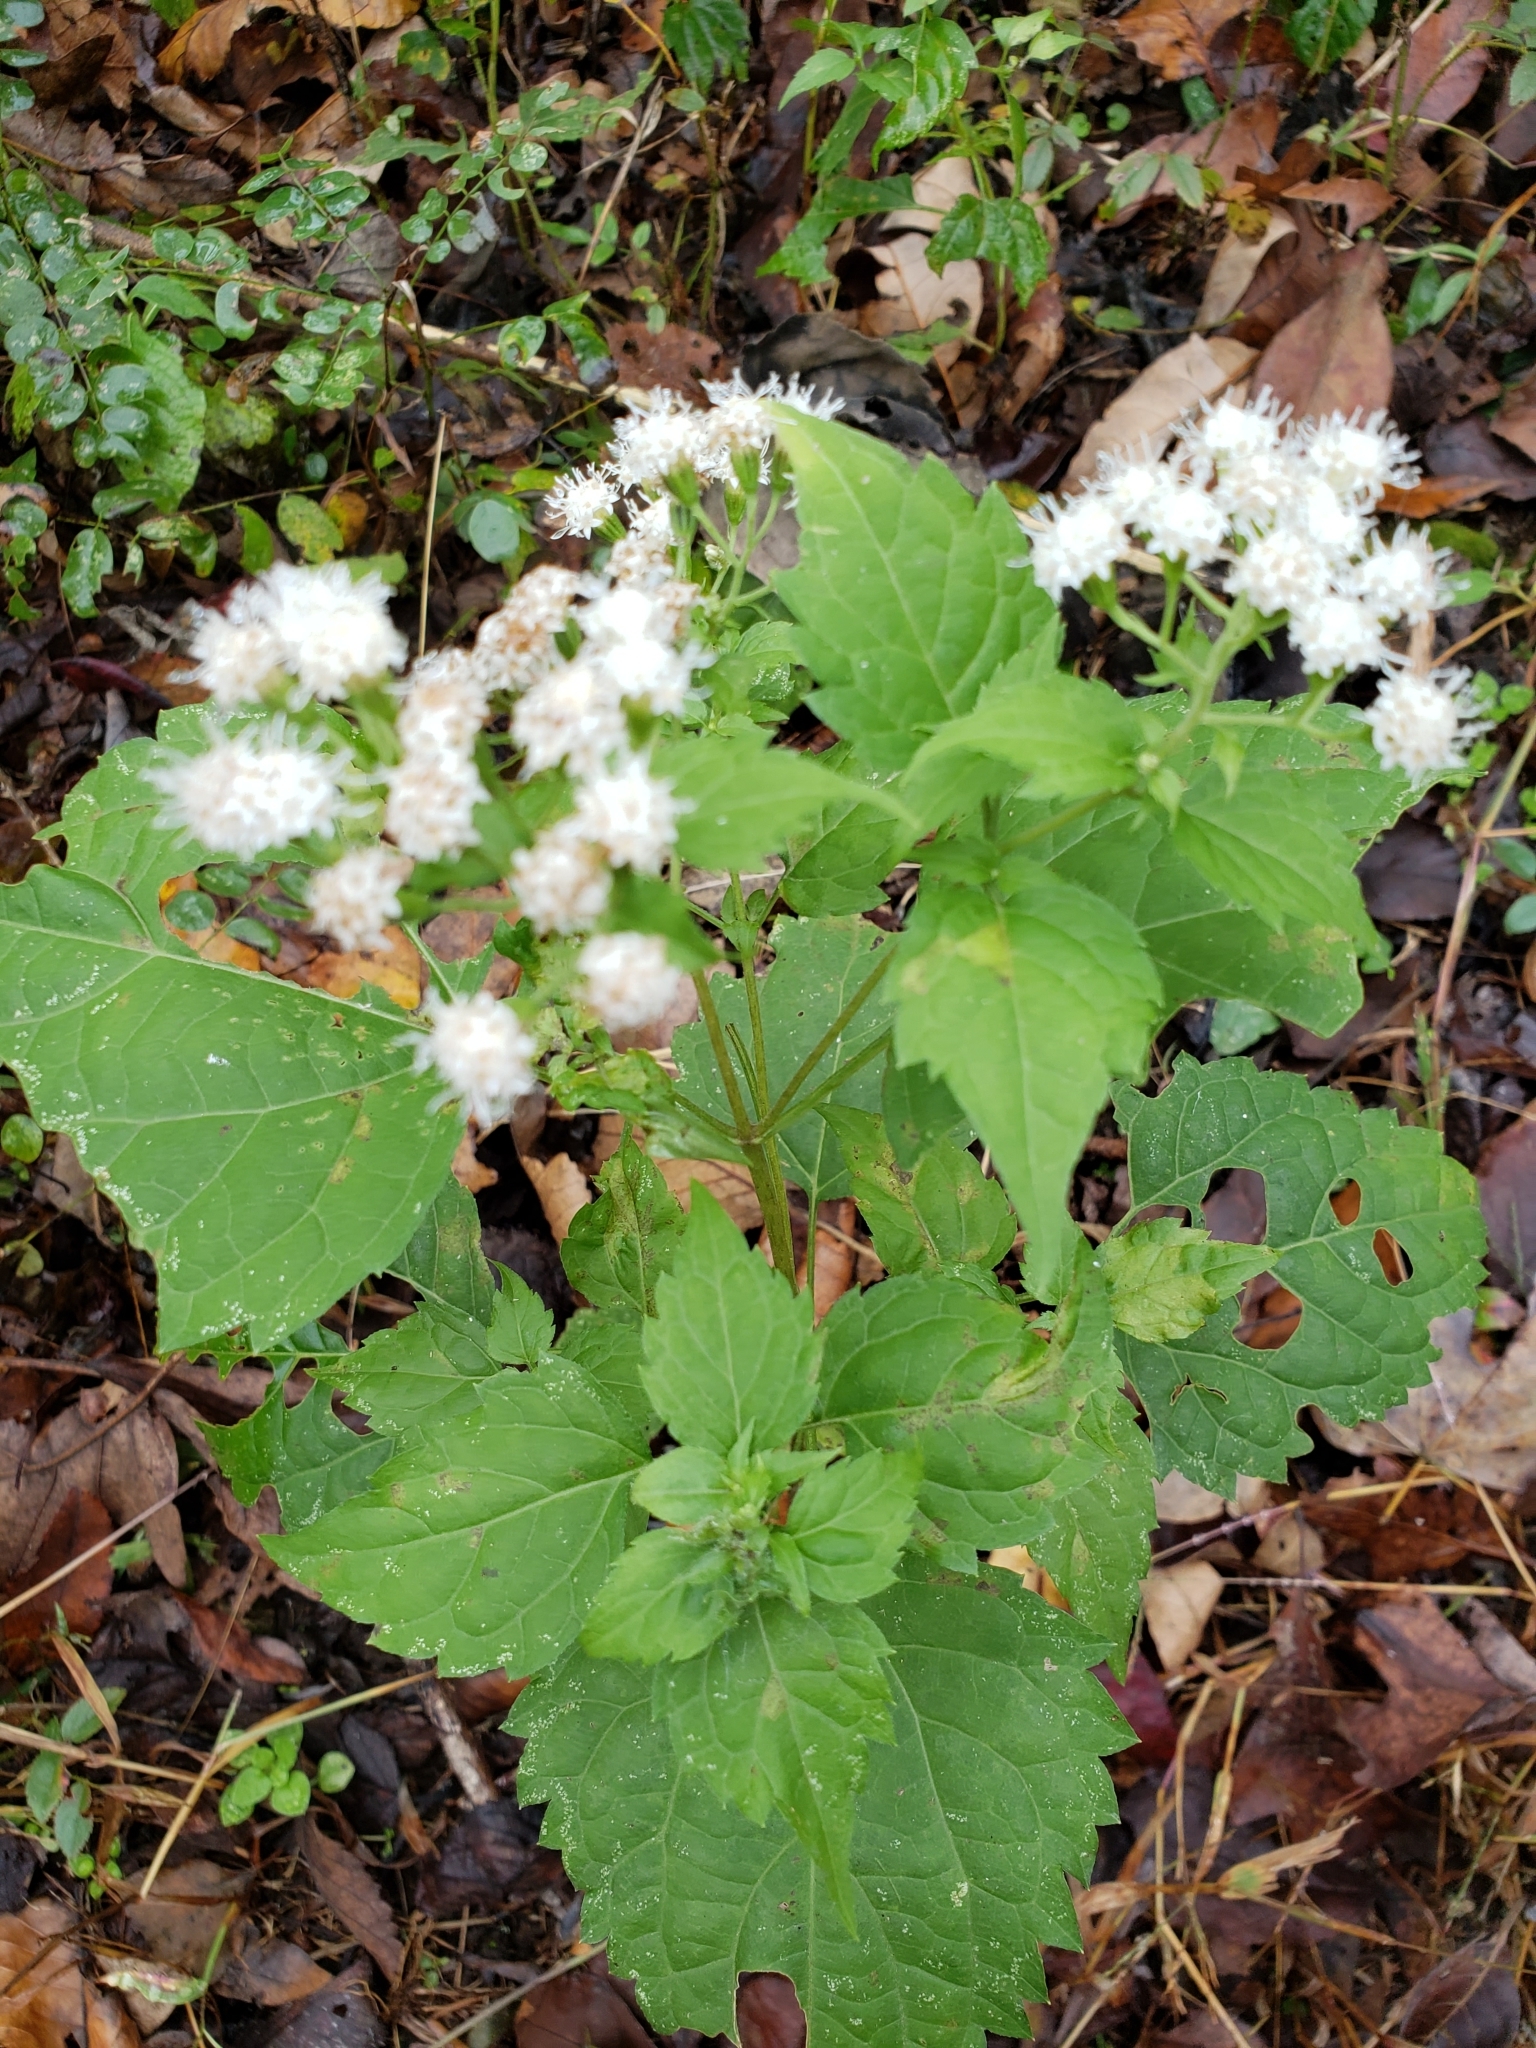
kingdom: Plantae
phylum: Tracheophyta
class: Magnoliopsida
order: Asterales
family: Asteraceae
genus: Ageratina
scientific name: Ageratina altissima
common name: White snakeroot
